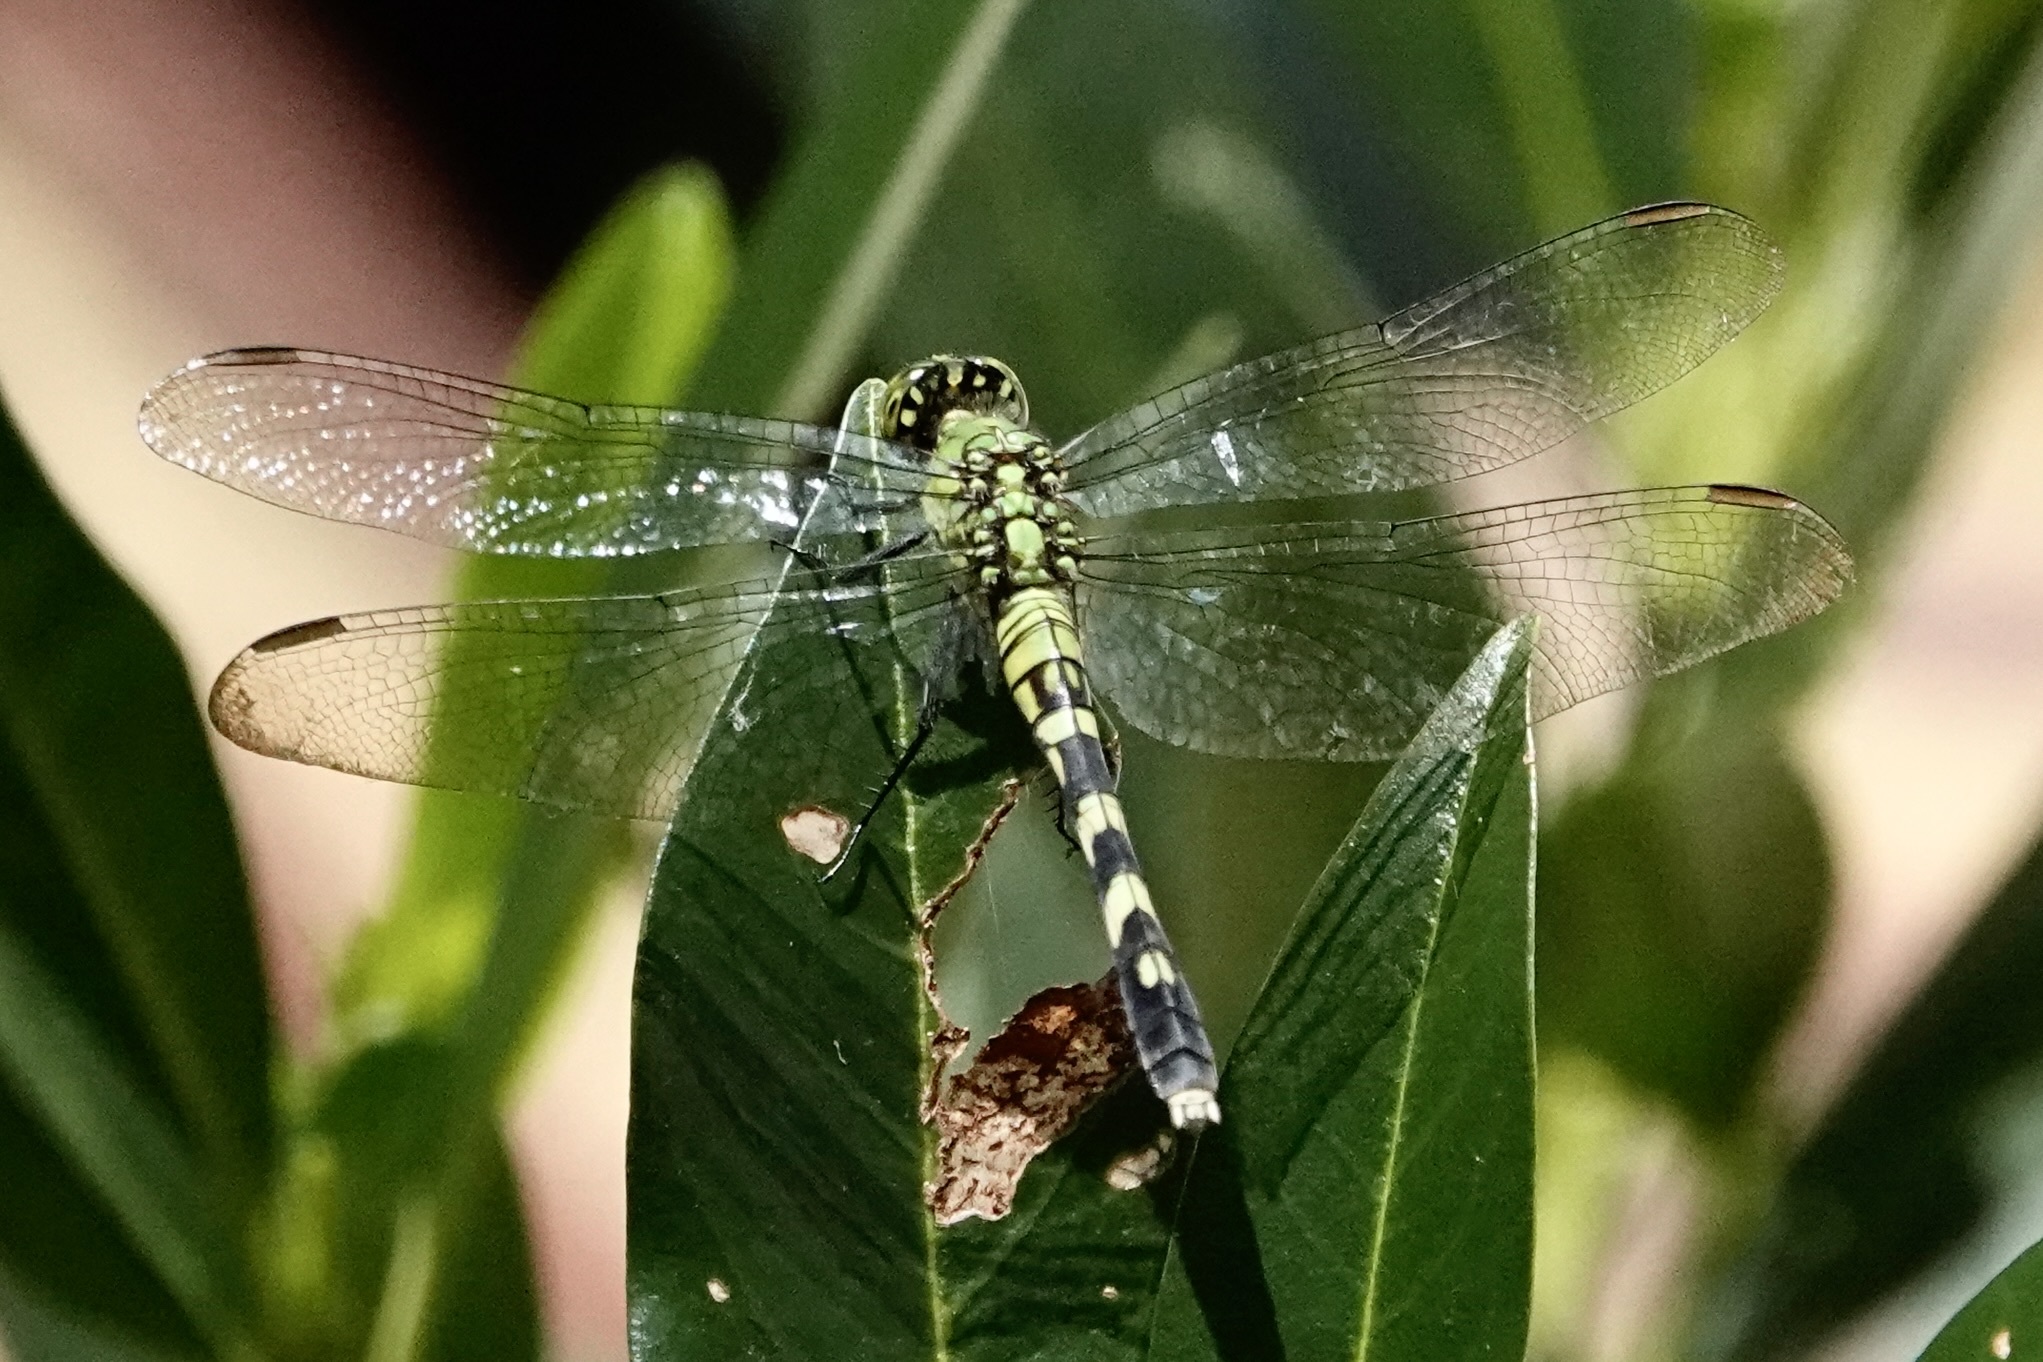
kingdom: Animalia
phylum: Arthropoda
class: Insecta
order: Odonata
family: Libellulidae
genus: Erythemis
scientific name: Erythemis simplicicollis
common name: Eastern pondhawk
